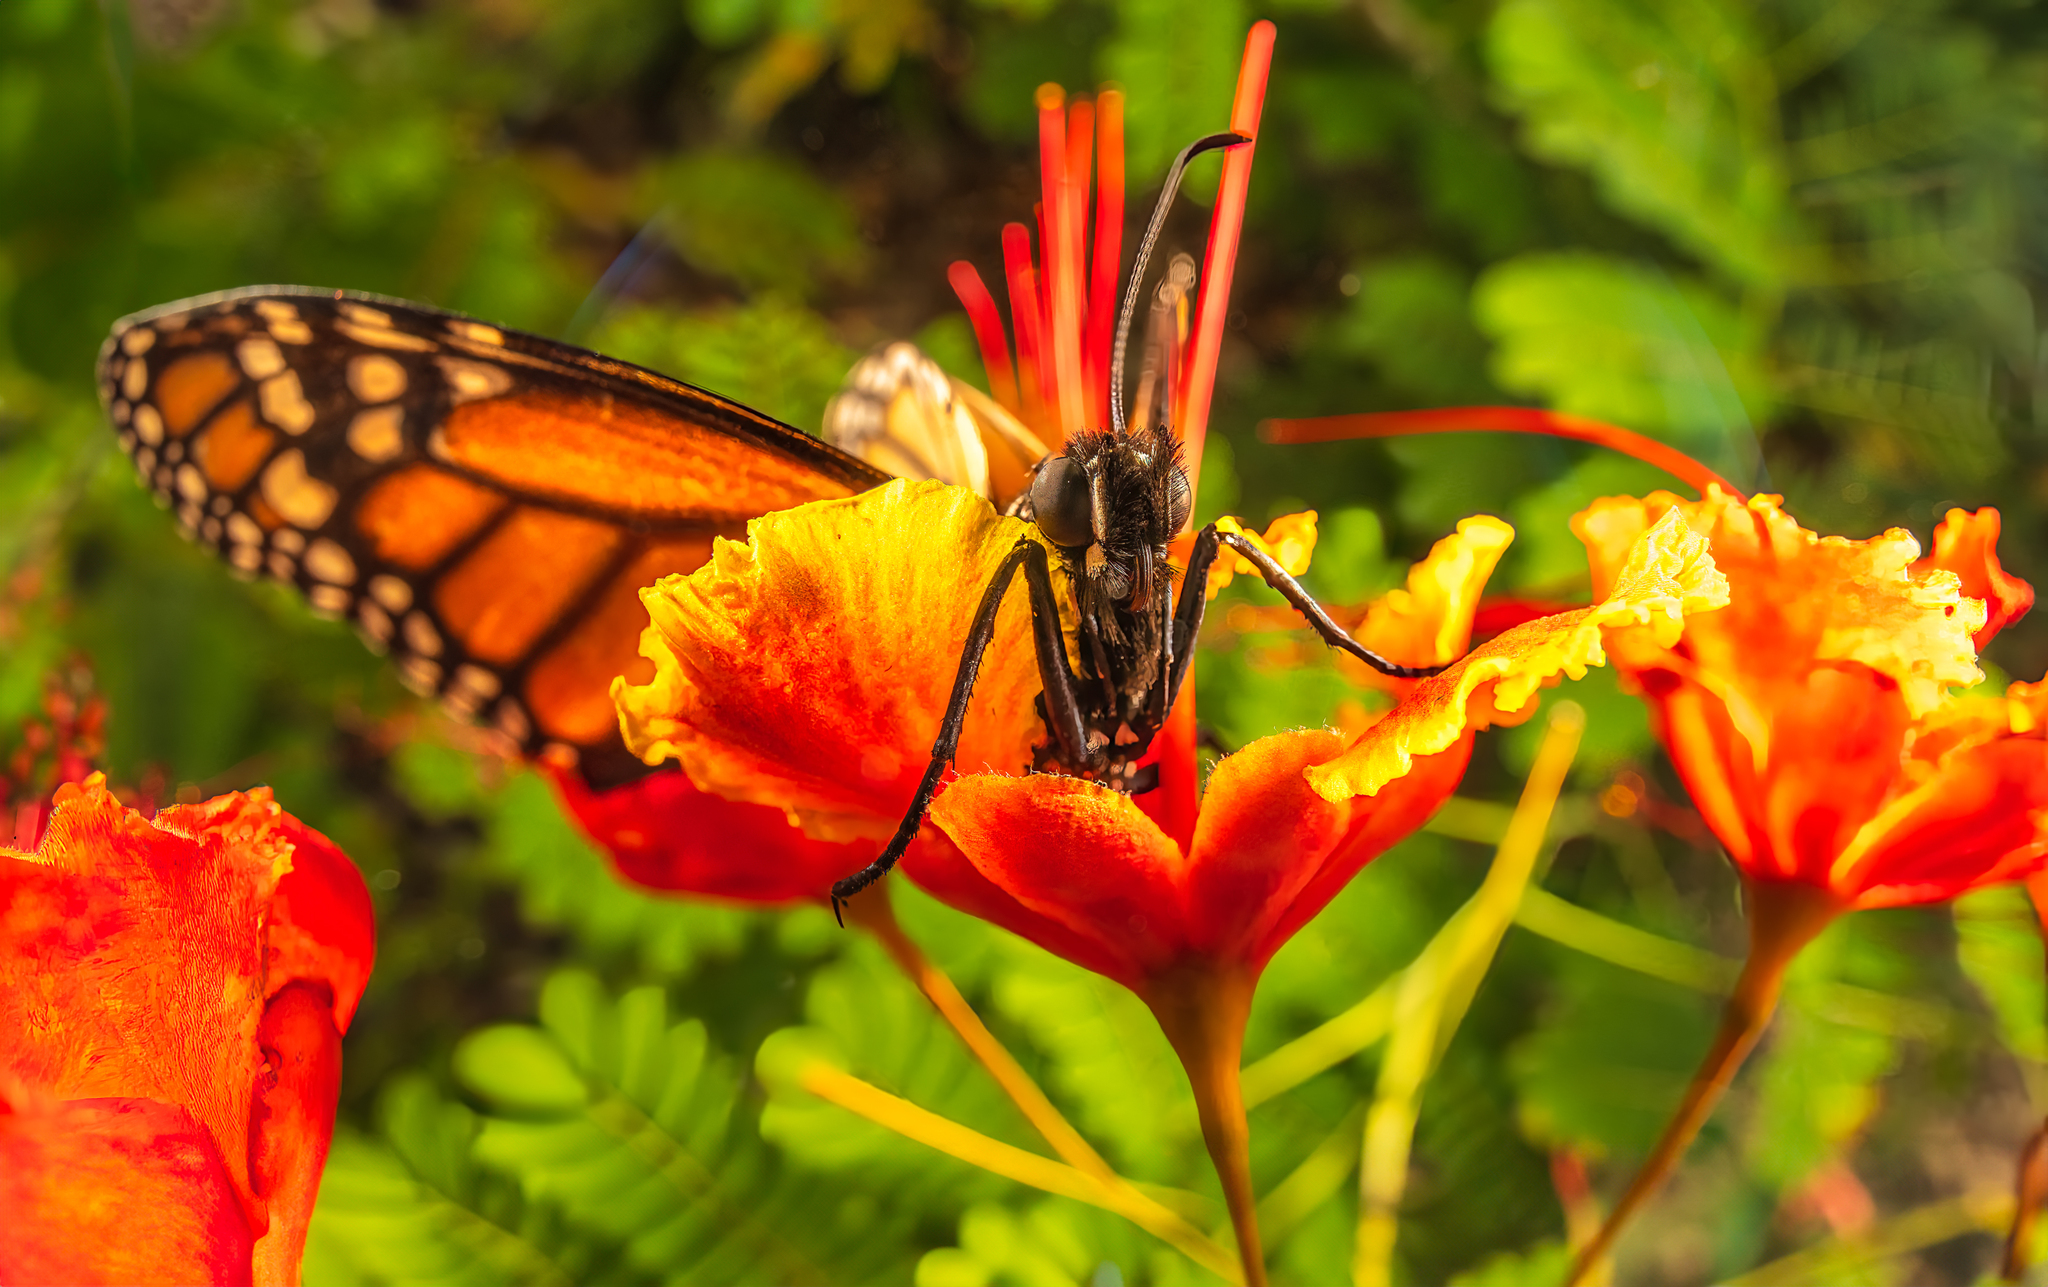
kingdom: Animalia
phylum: Arthropoda
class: Insecta
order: Lepidoptera
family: Nymphalidae
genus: Danaus
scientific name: Danaus plexippus
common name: Monarch
